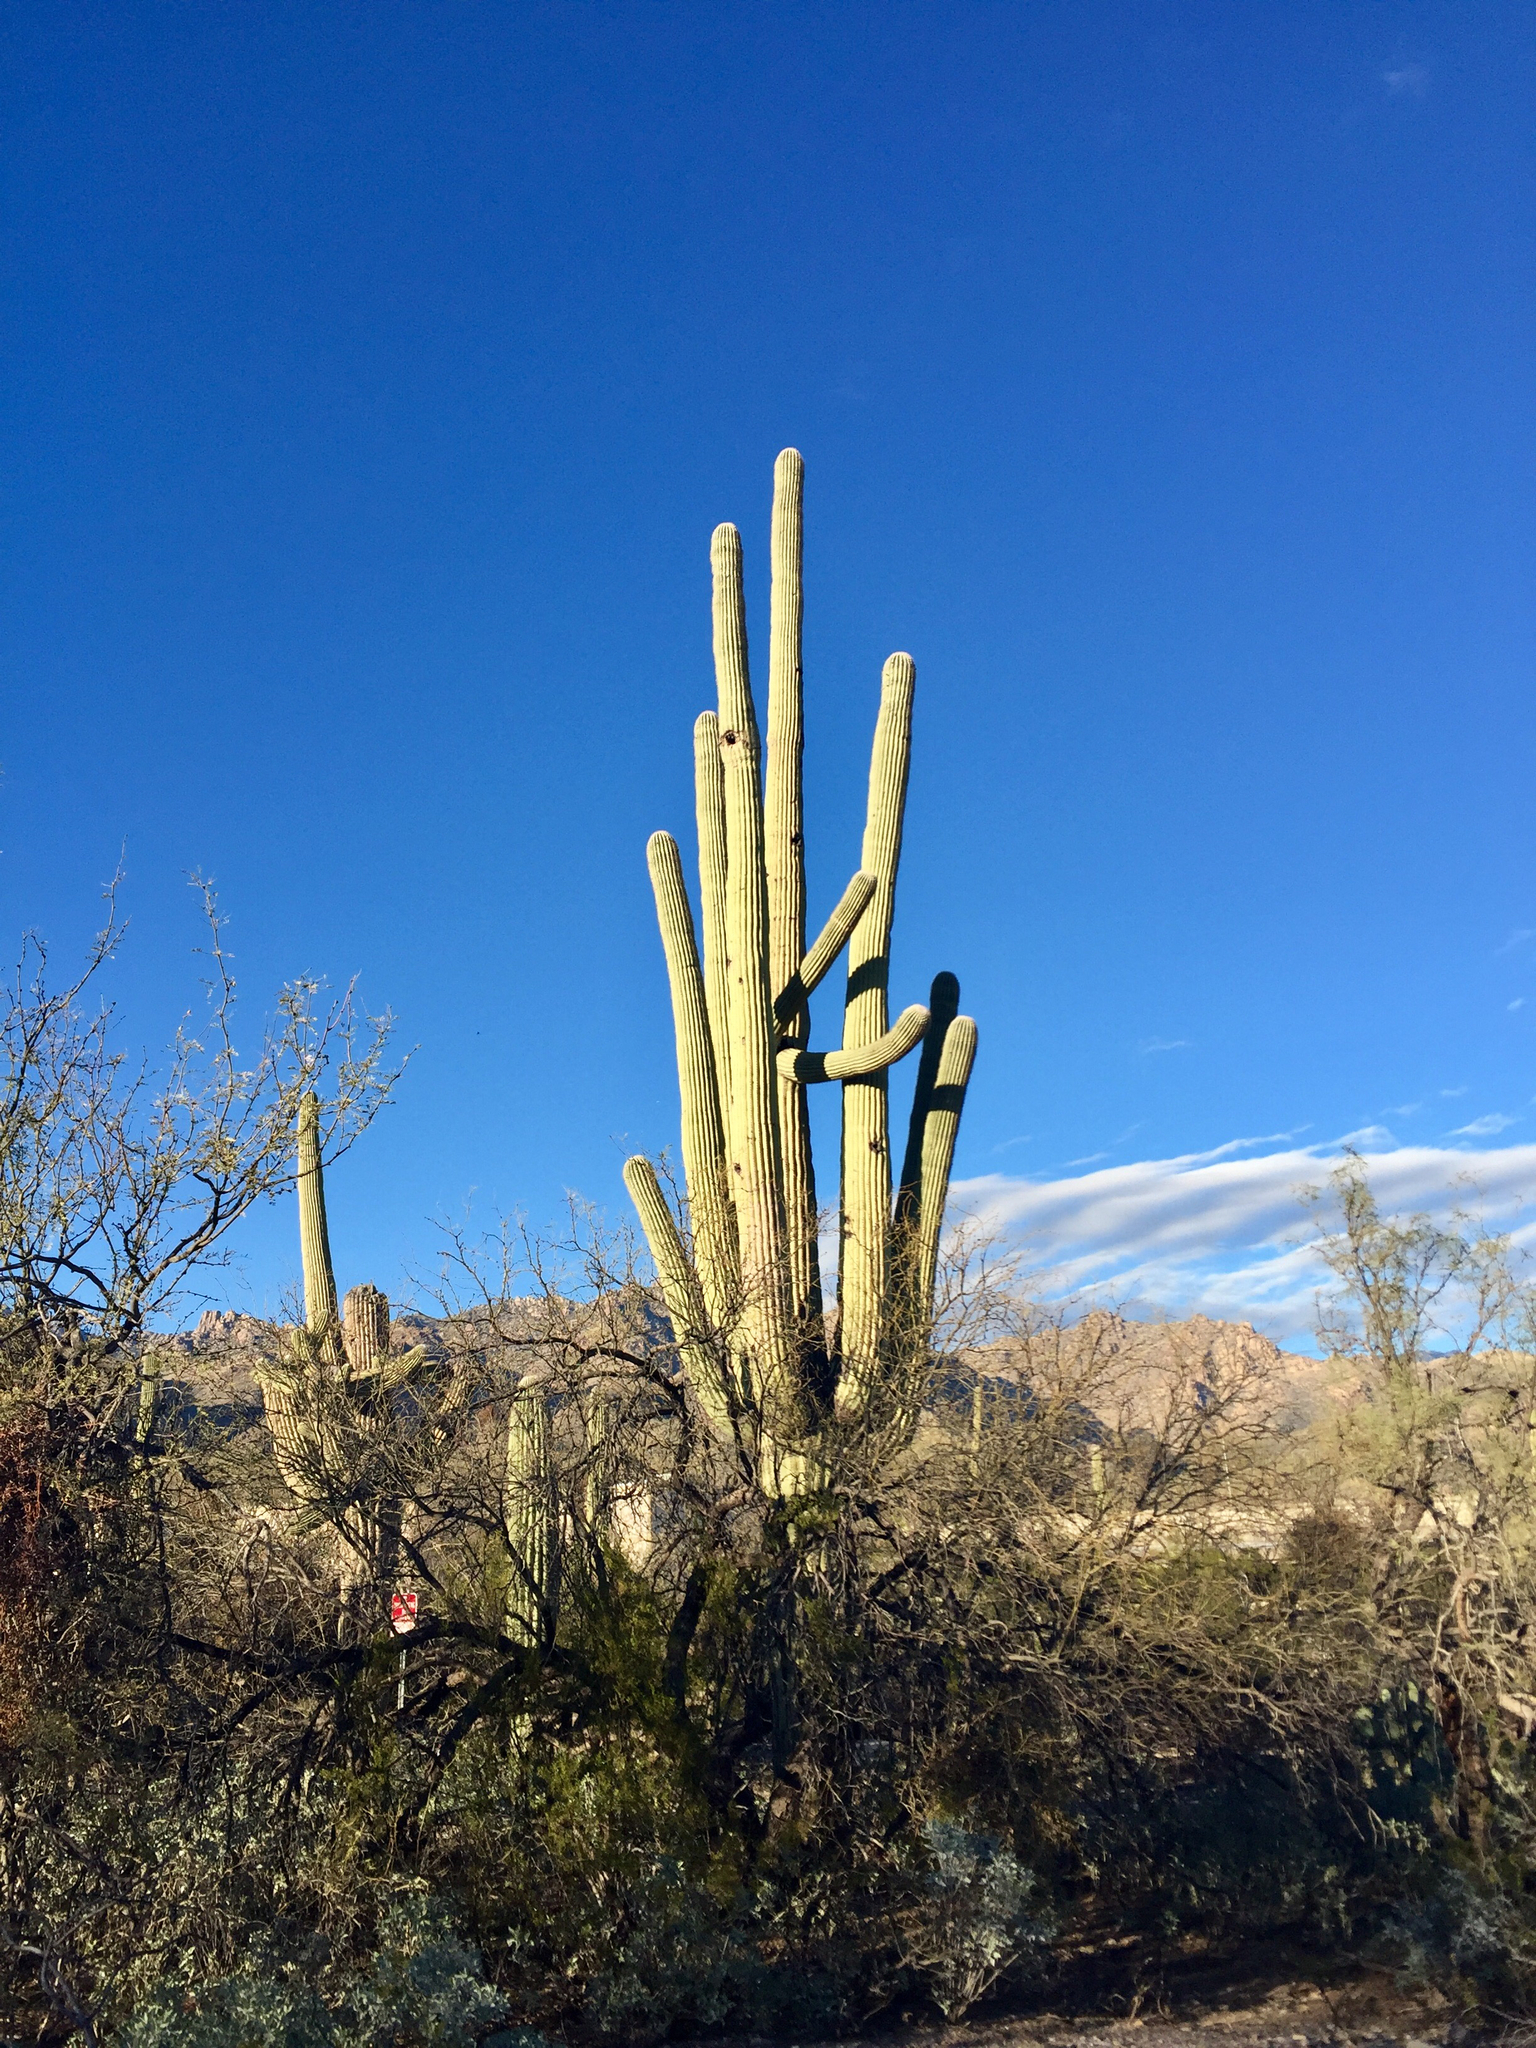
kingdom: Plantae
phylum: Tracheophyta
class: Magnoliopsida
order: Caryophyllales
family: Cactaceae
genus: Carnegiea
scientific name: Carnegiea gigantea
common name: Saguaro
